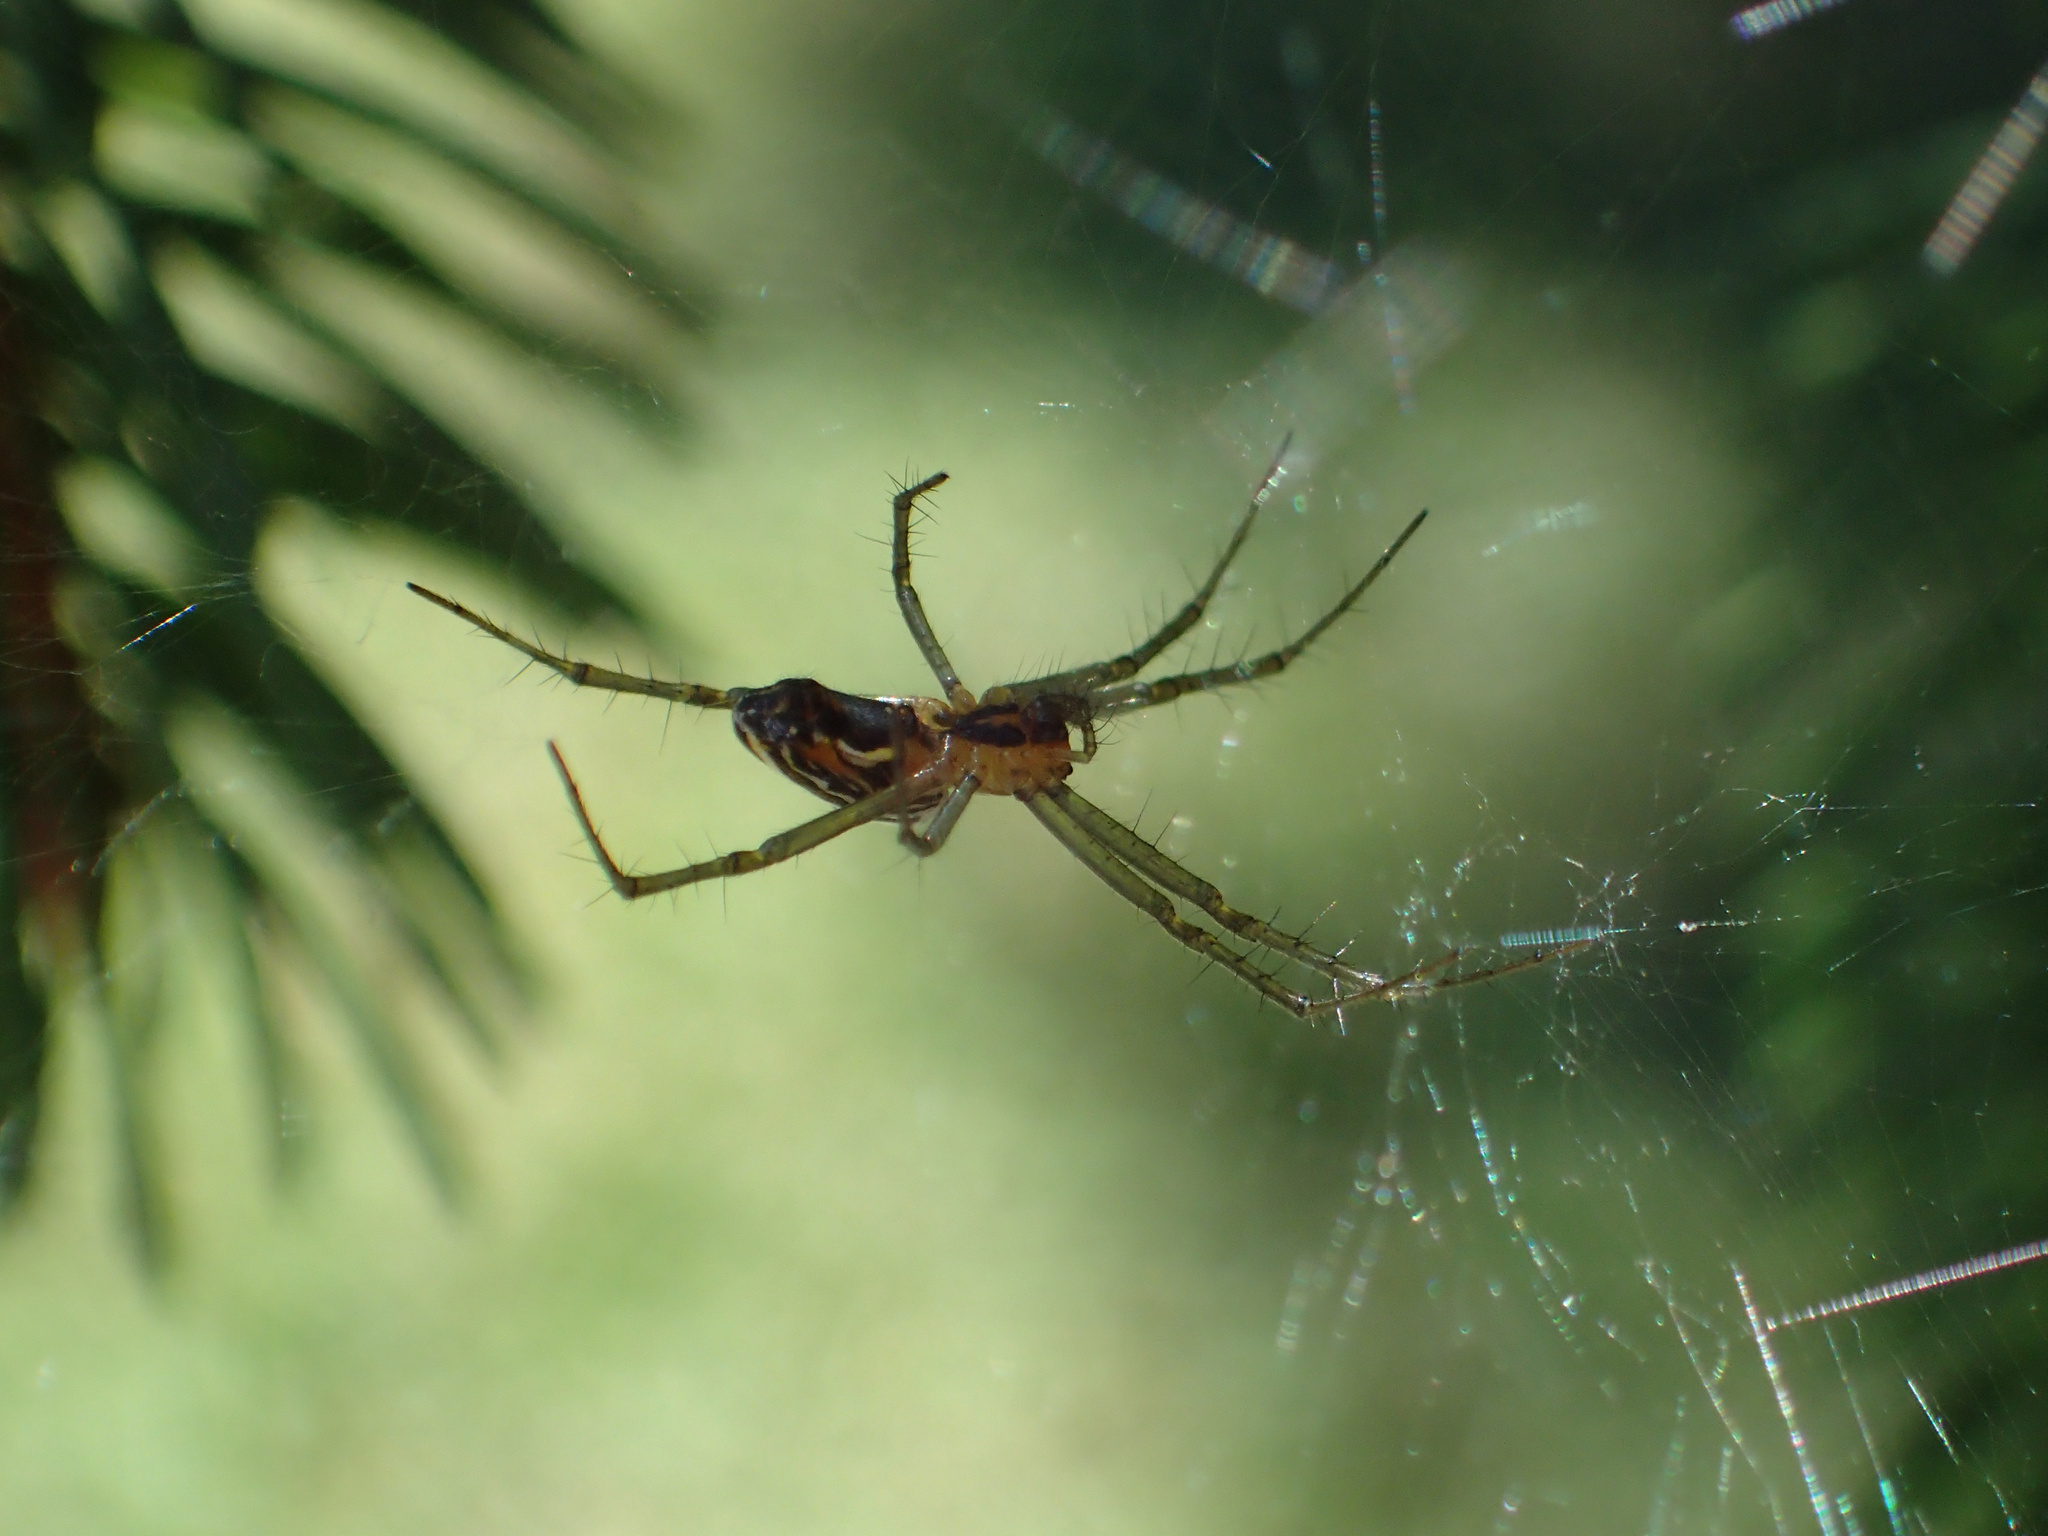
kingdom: Animalia
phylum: Arthropoda
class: Arachnida
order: Araneae
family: Araneidae
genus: Mecynogea
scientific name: Mecynogea lemniscata
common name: Orb weavers
